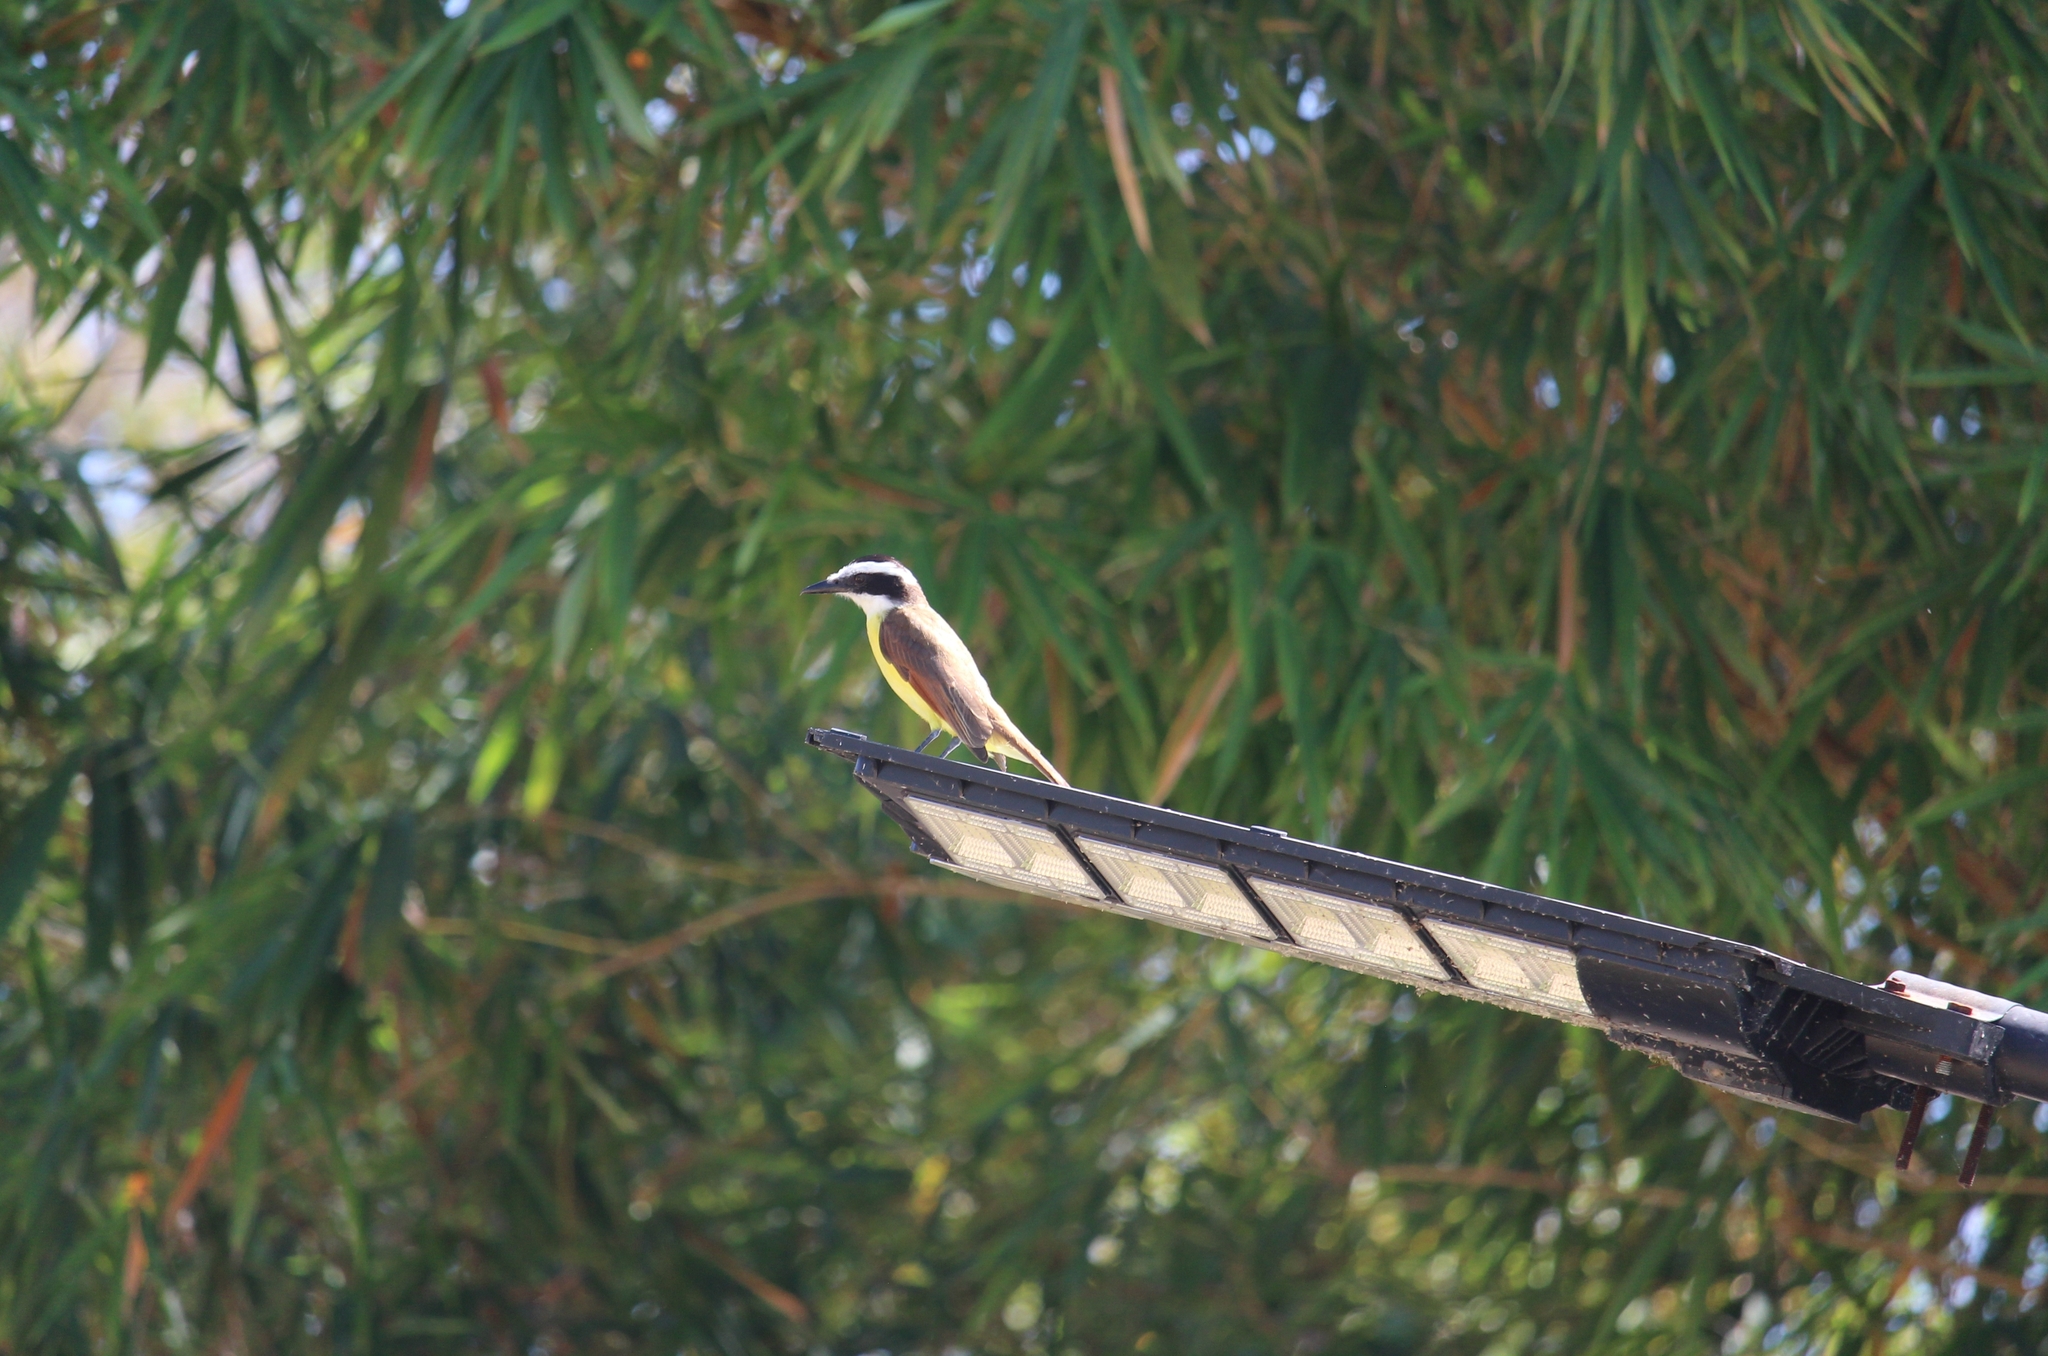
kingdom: Animalia
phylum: Chordata
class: Aves
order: Passeriformes
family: Tyrannidae
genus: Pitangus
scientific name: Pitangus sulphuratus
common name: Great kiskadee
